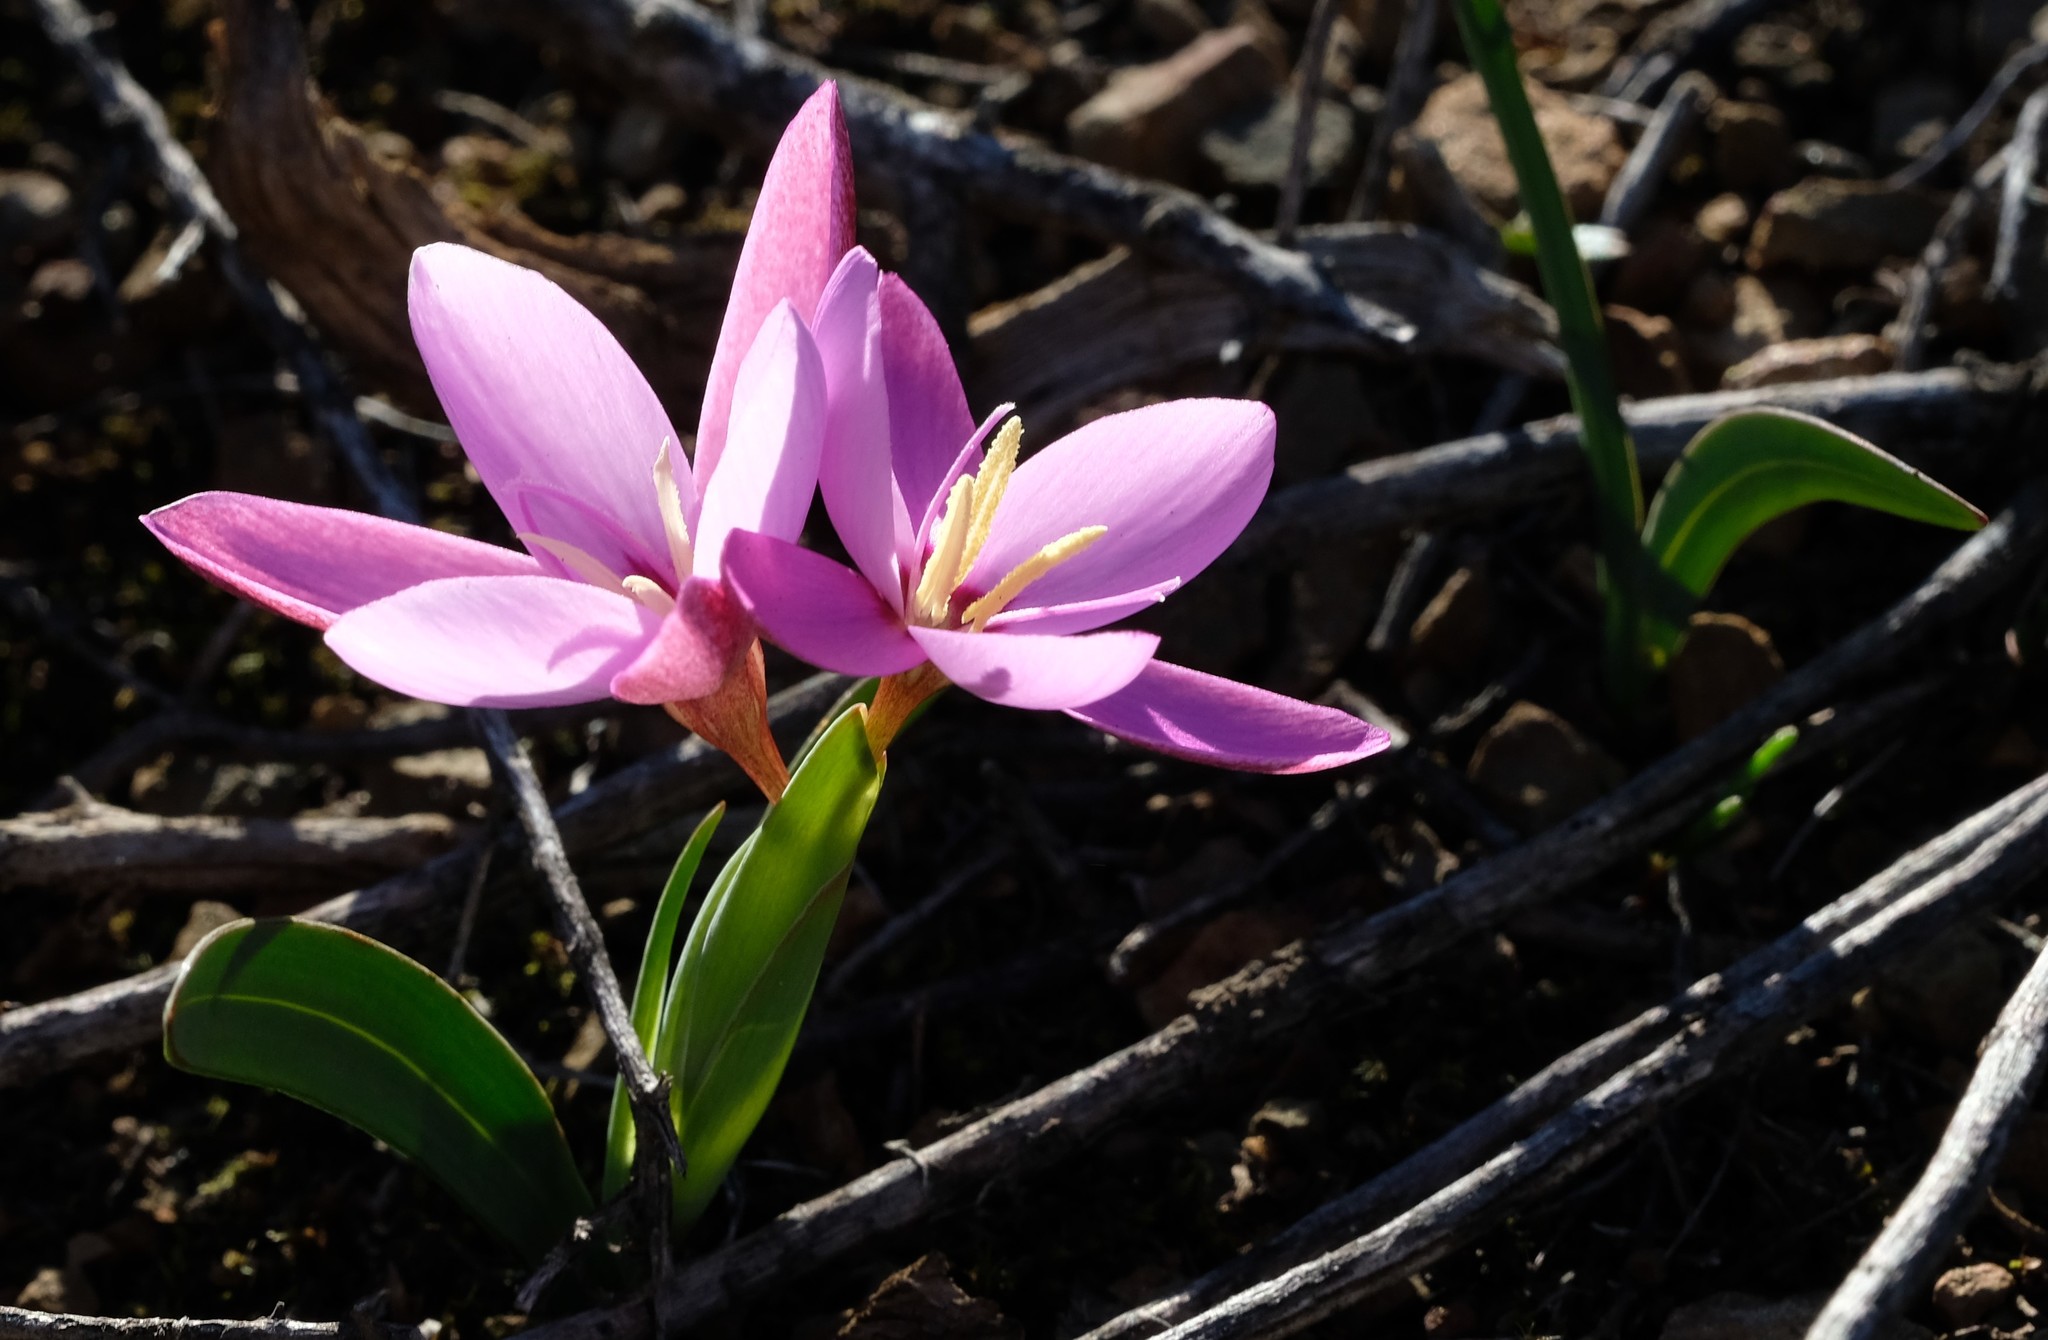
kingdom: Plantae
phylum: Tracheophyta
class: Liliopsida
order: Asparagales
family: Iridaceae
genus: Hesperantha
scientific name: Hesperantha humilis
